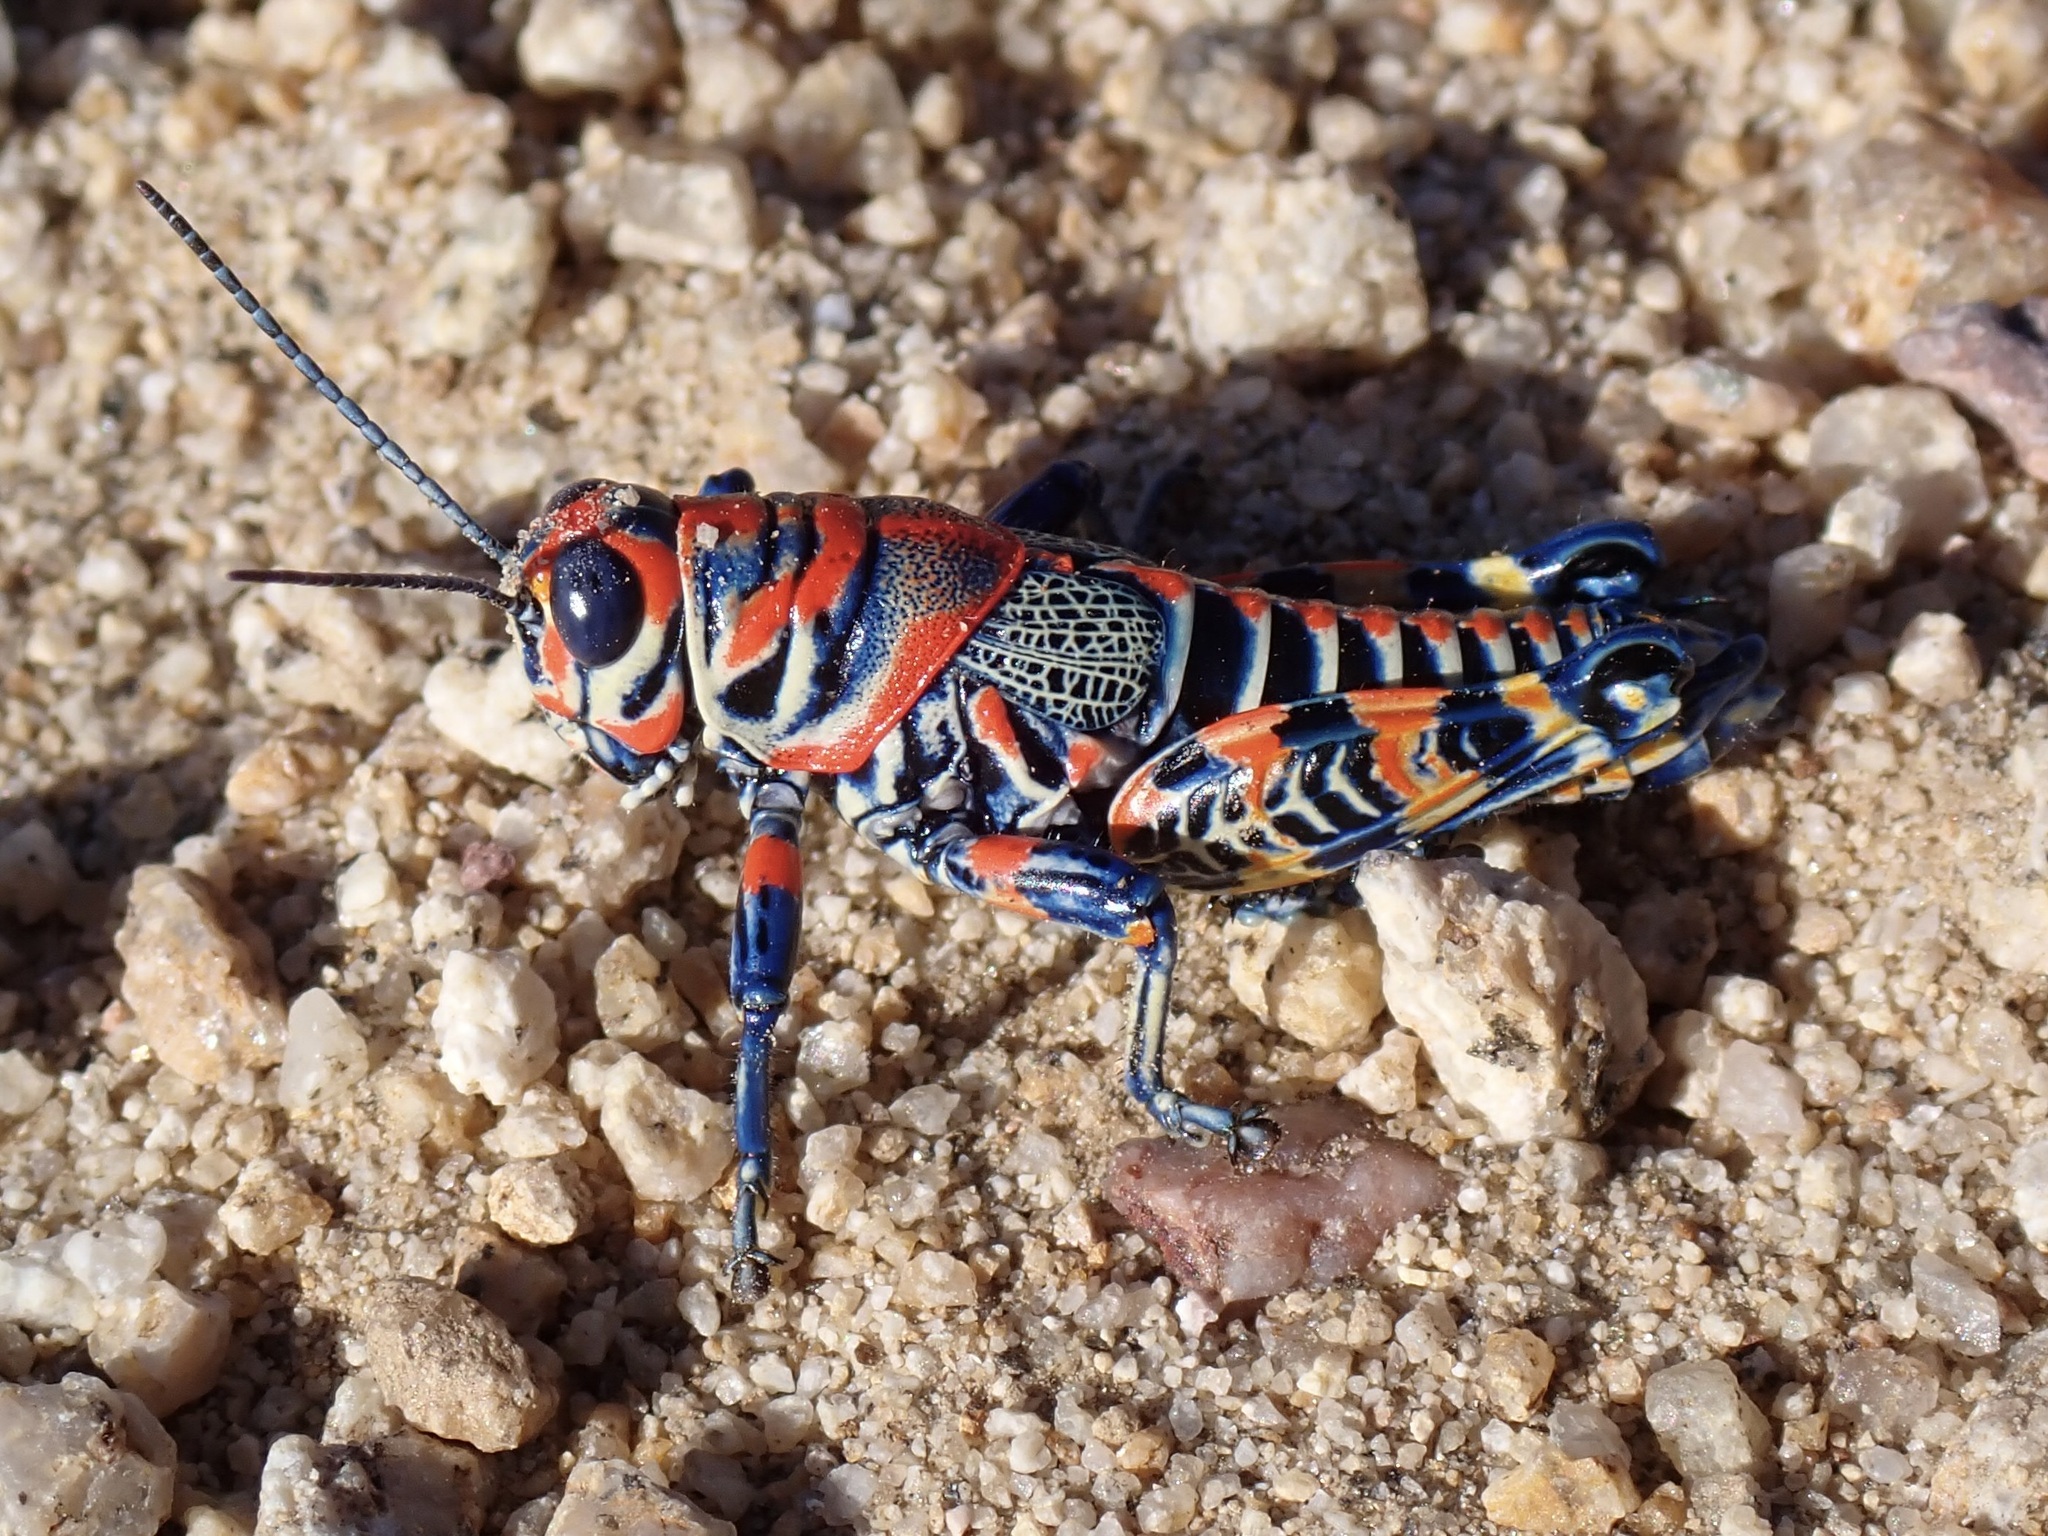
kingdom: Animalia
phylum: Arthropoda
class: Insecta
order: Orthoptera
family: Acrididae
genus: Dactylotum
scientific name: Dactylotum bicolor
